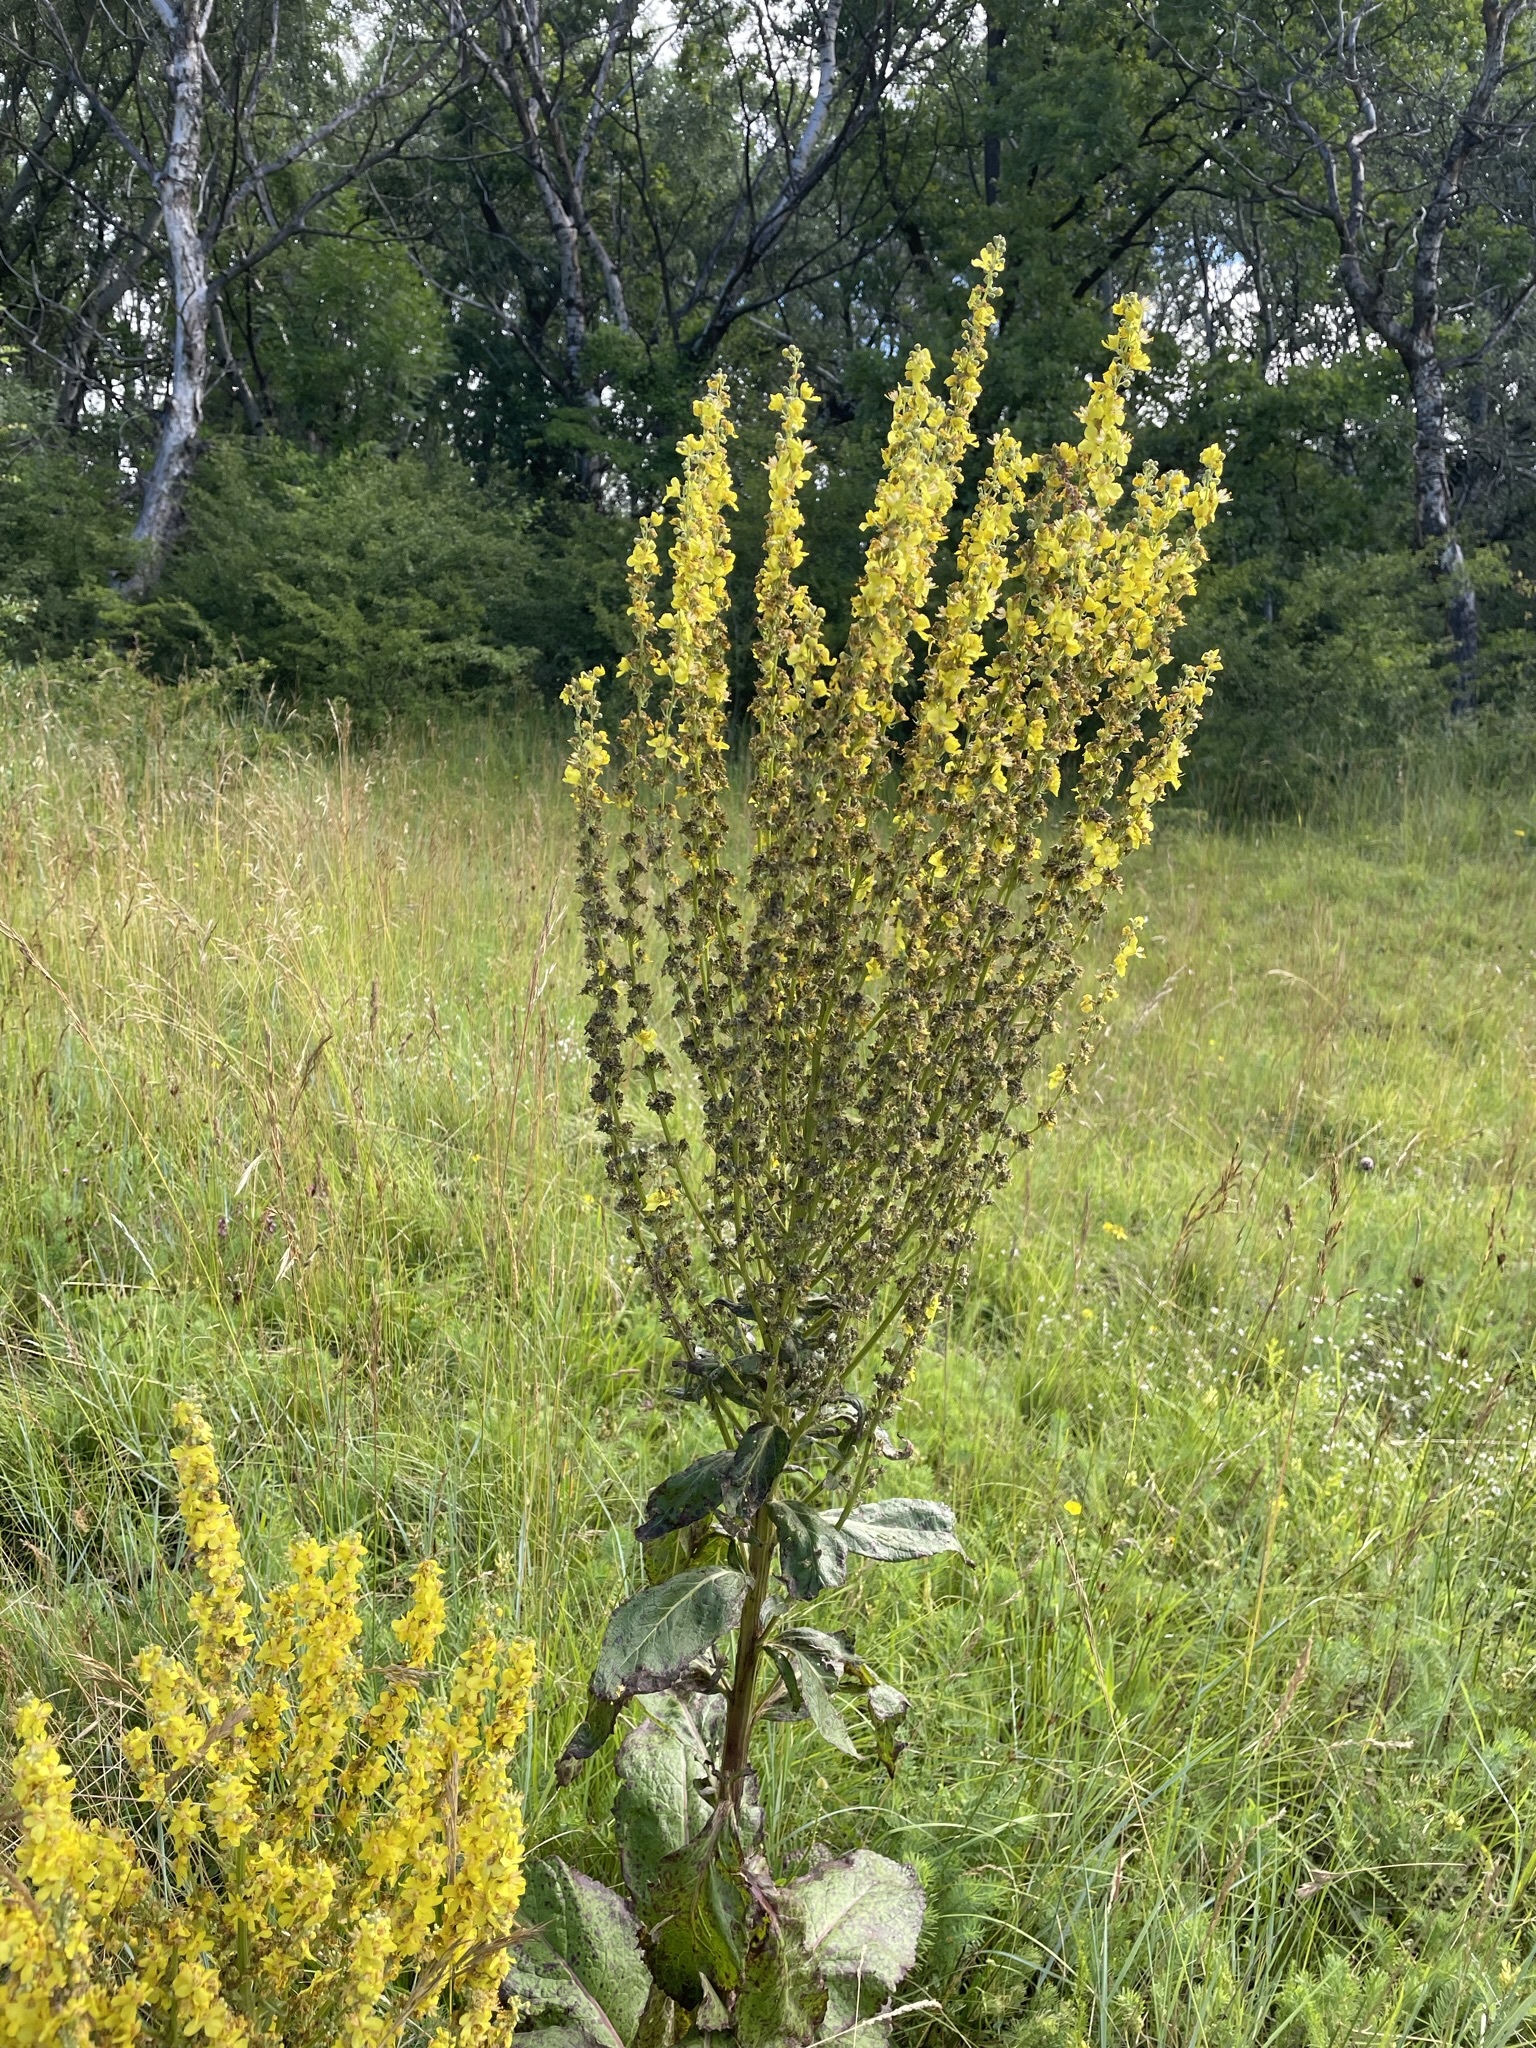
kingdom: Plantae
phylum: Tracheophyta
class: Magnoliopsida
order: Lamiales
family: Scrophulariaceae
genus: Verbascum
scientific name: Verbascum lychnitis
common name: White mullein
